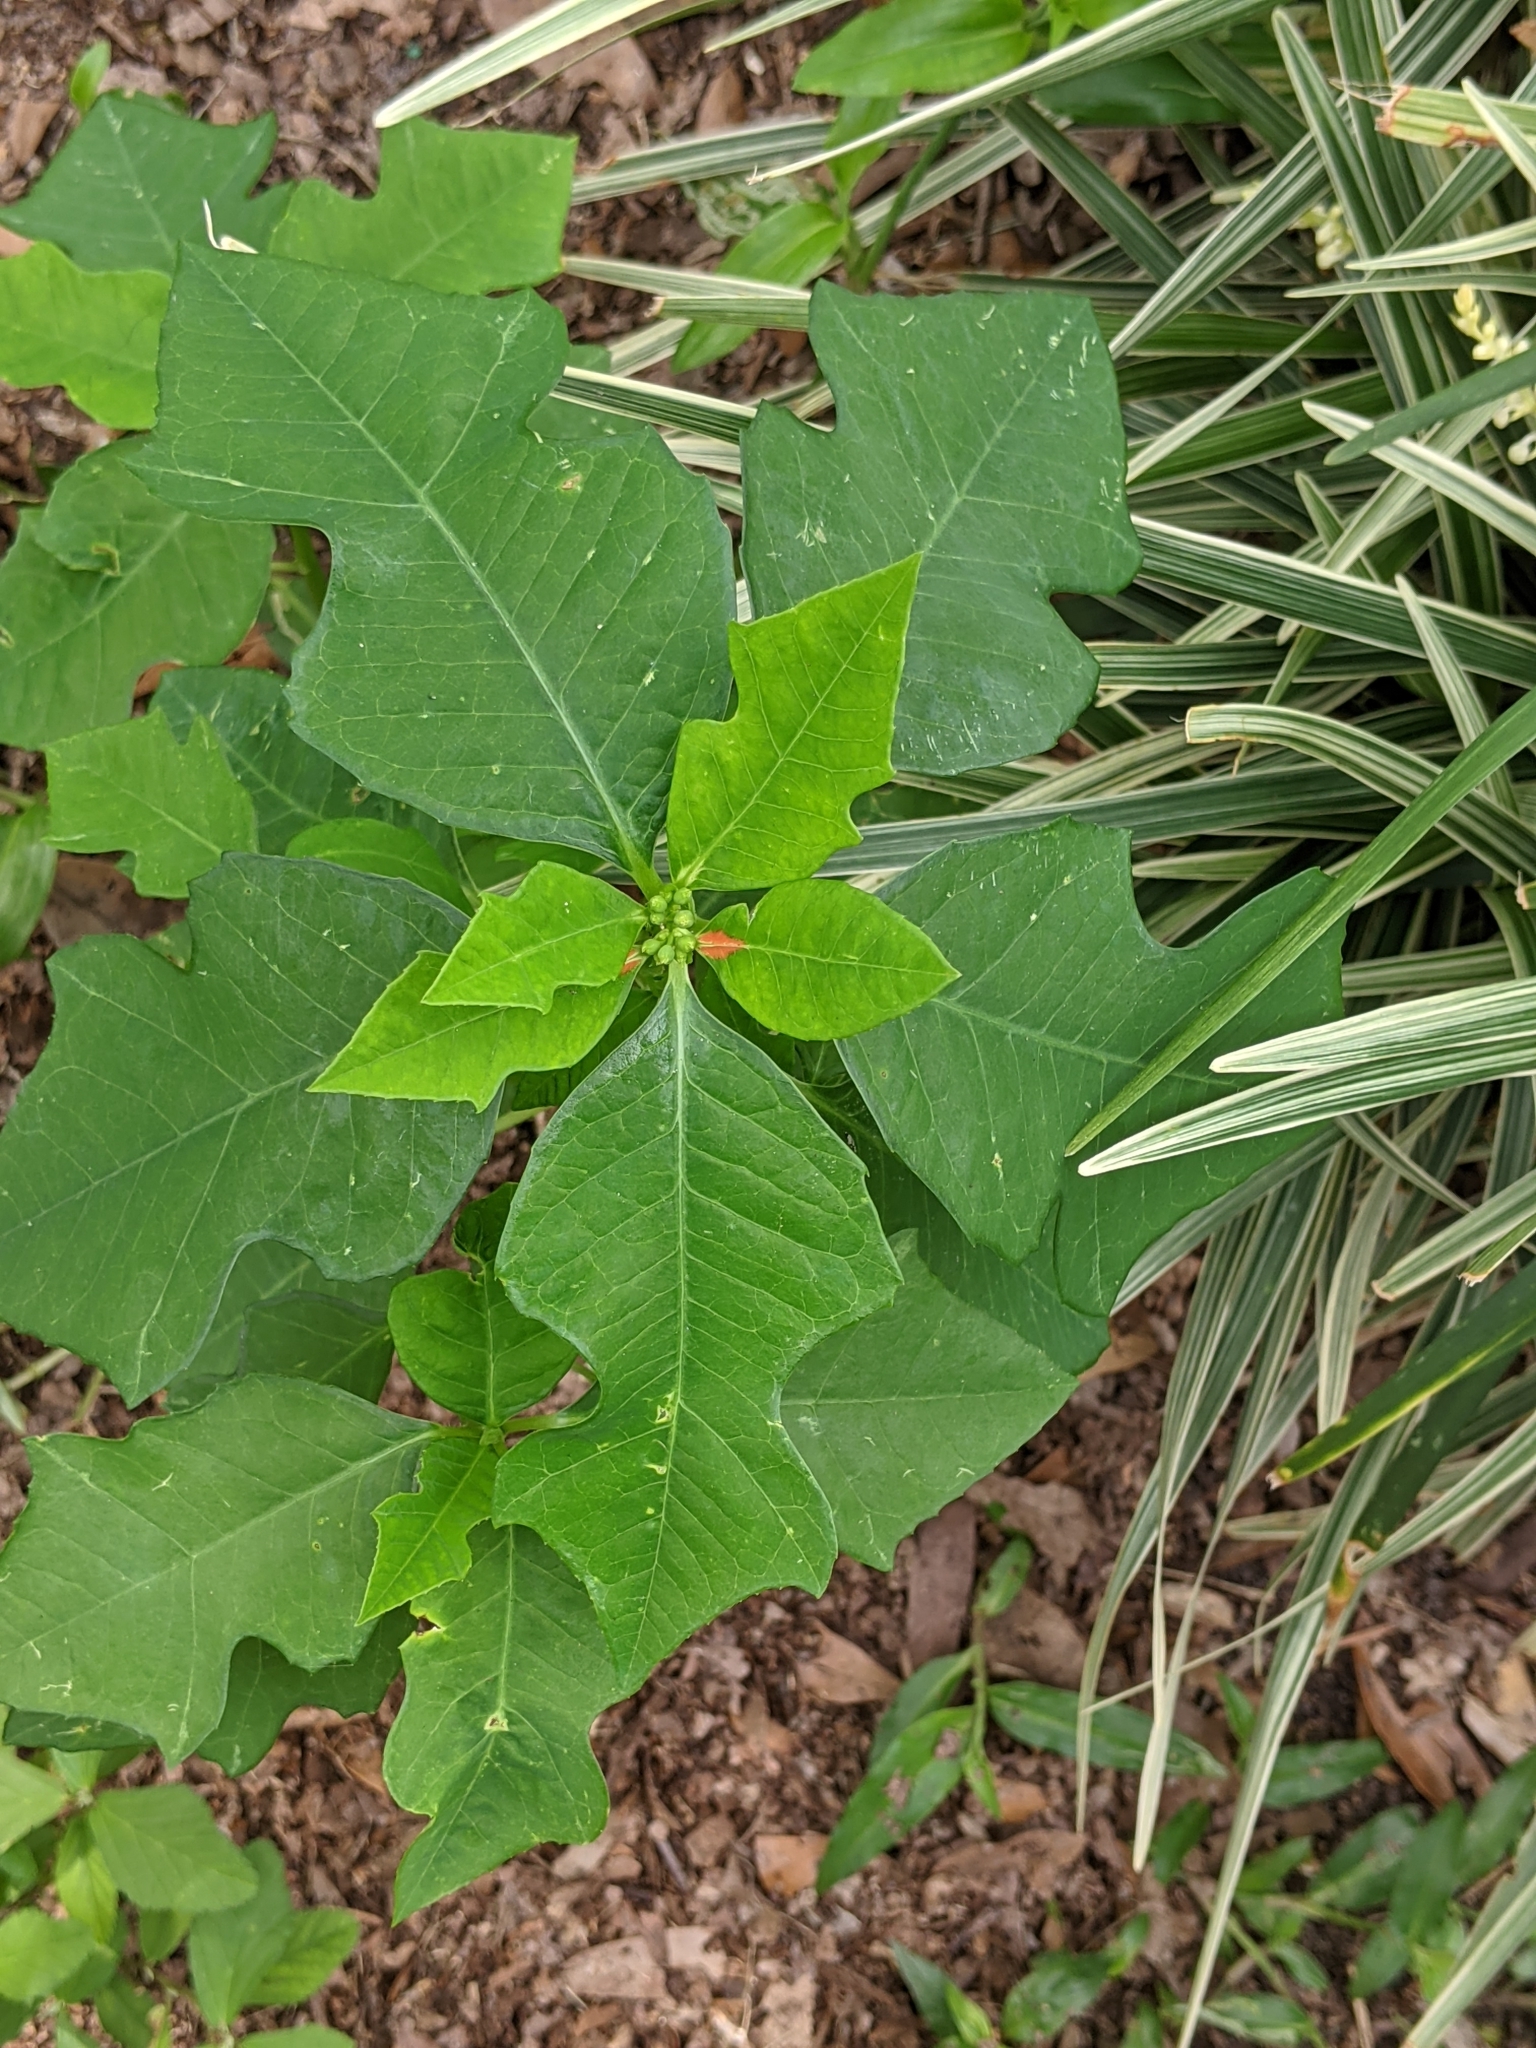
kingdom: Plantae
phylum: Tracheophyta
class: Magnoliopsida
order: Malpighiales
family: Euphorbiaceae
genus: Euphorbia
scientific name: Euphorbia heterophylla
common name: Mexican fireplant
